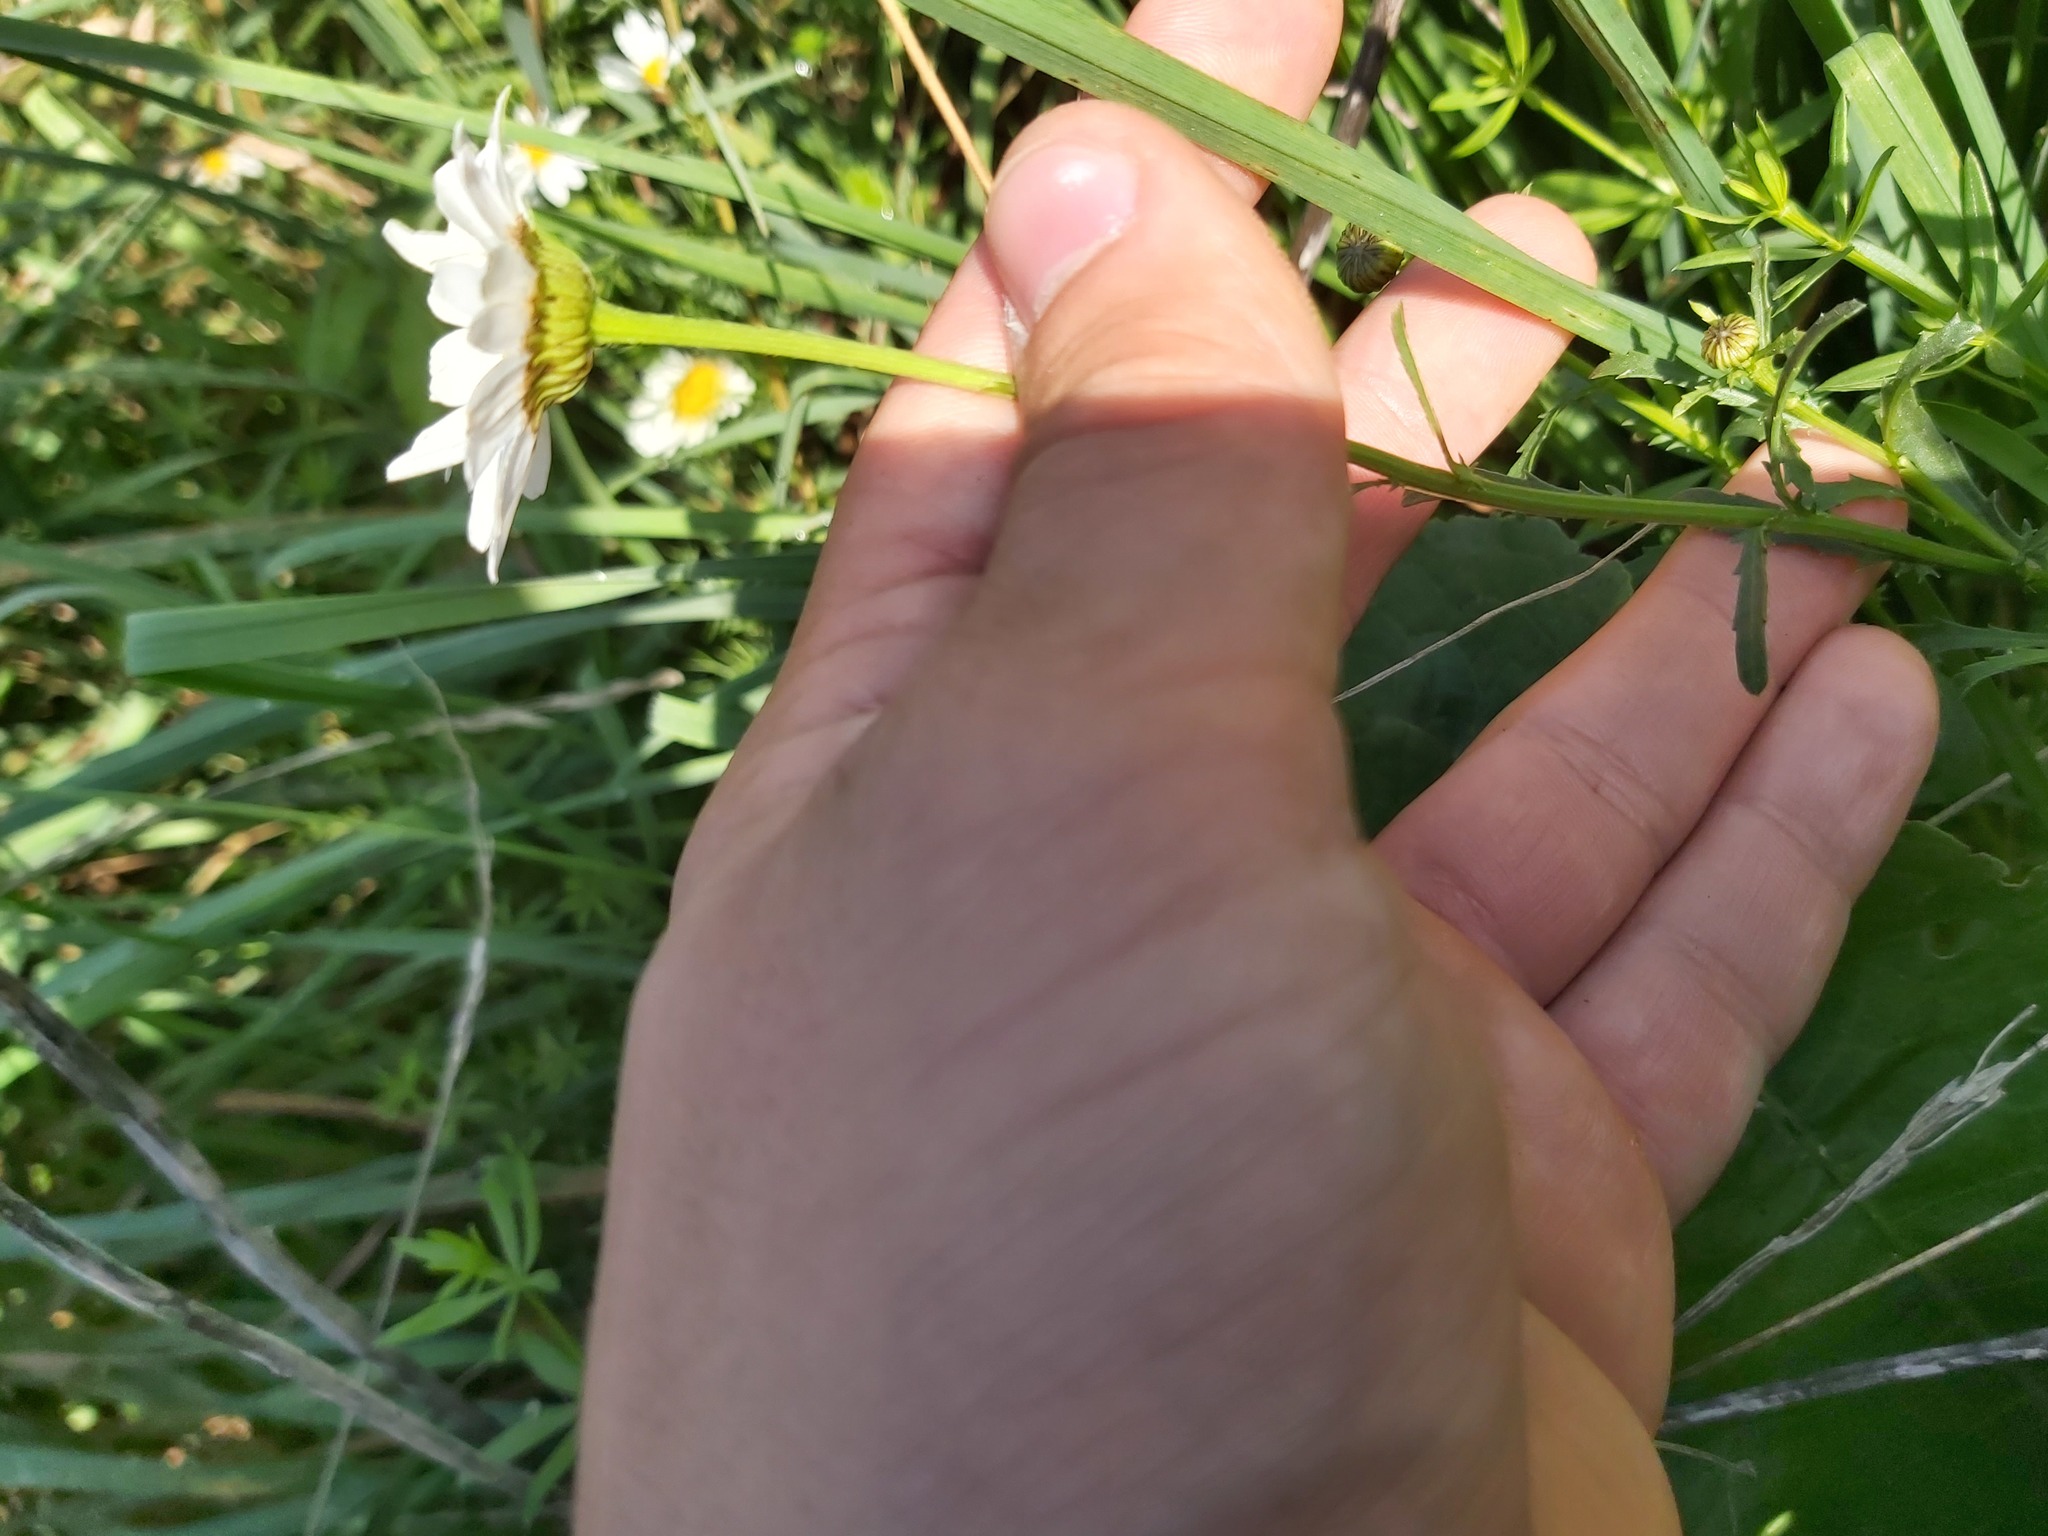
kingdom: Plantae
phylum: Tracheophyta
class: Magnoliopsida
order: Asterales
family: Asteraceae
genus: Leucanthemum
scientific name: Leucanthemum vulgare
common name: Oxeye daisy
